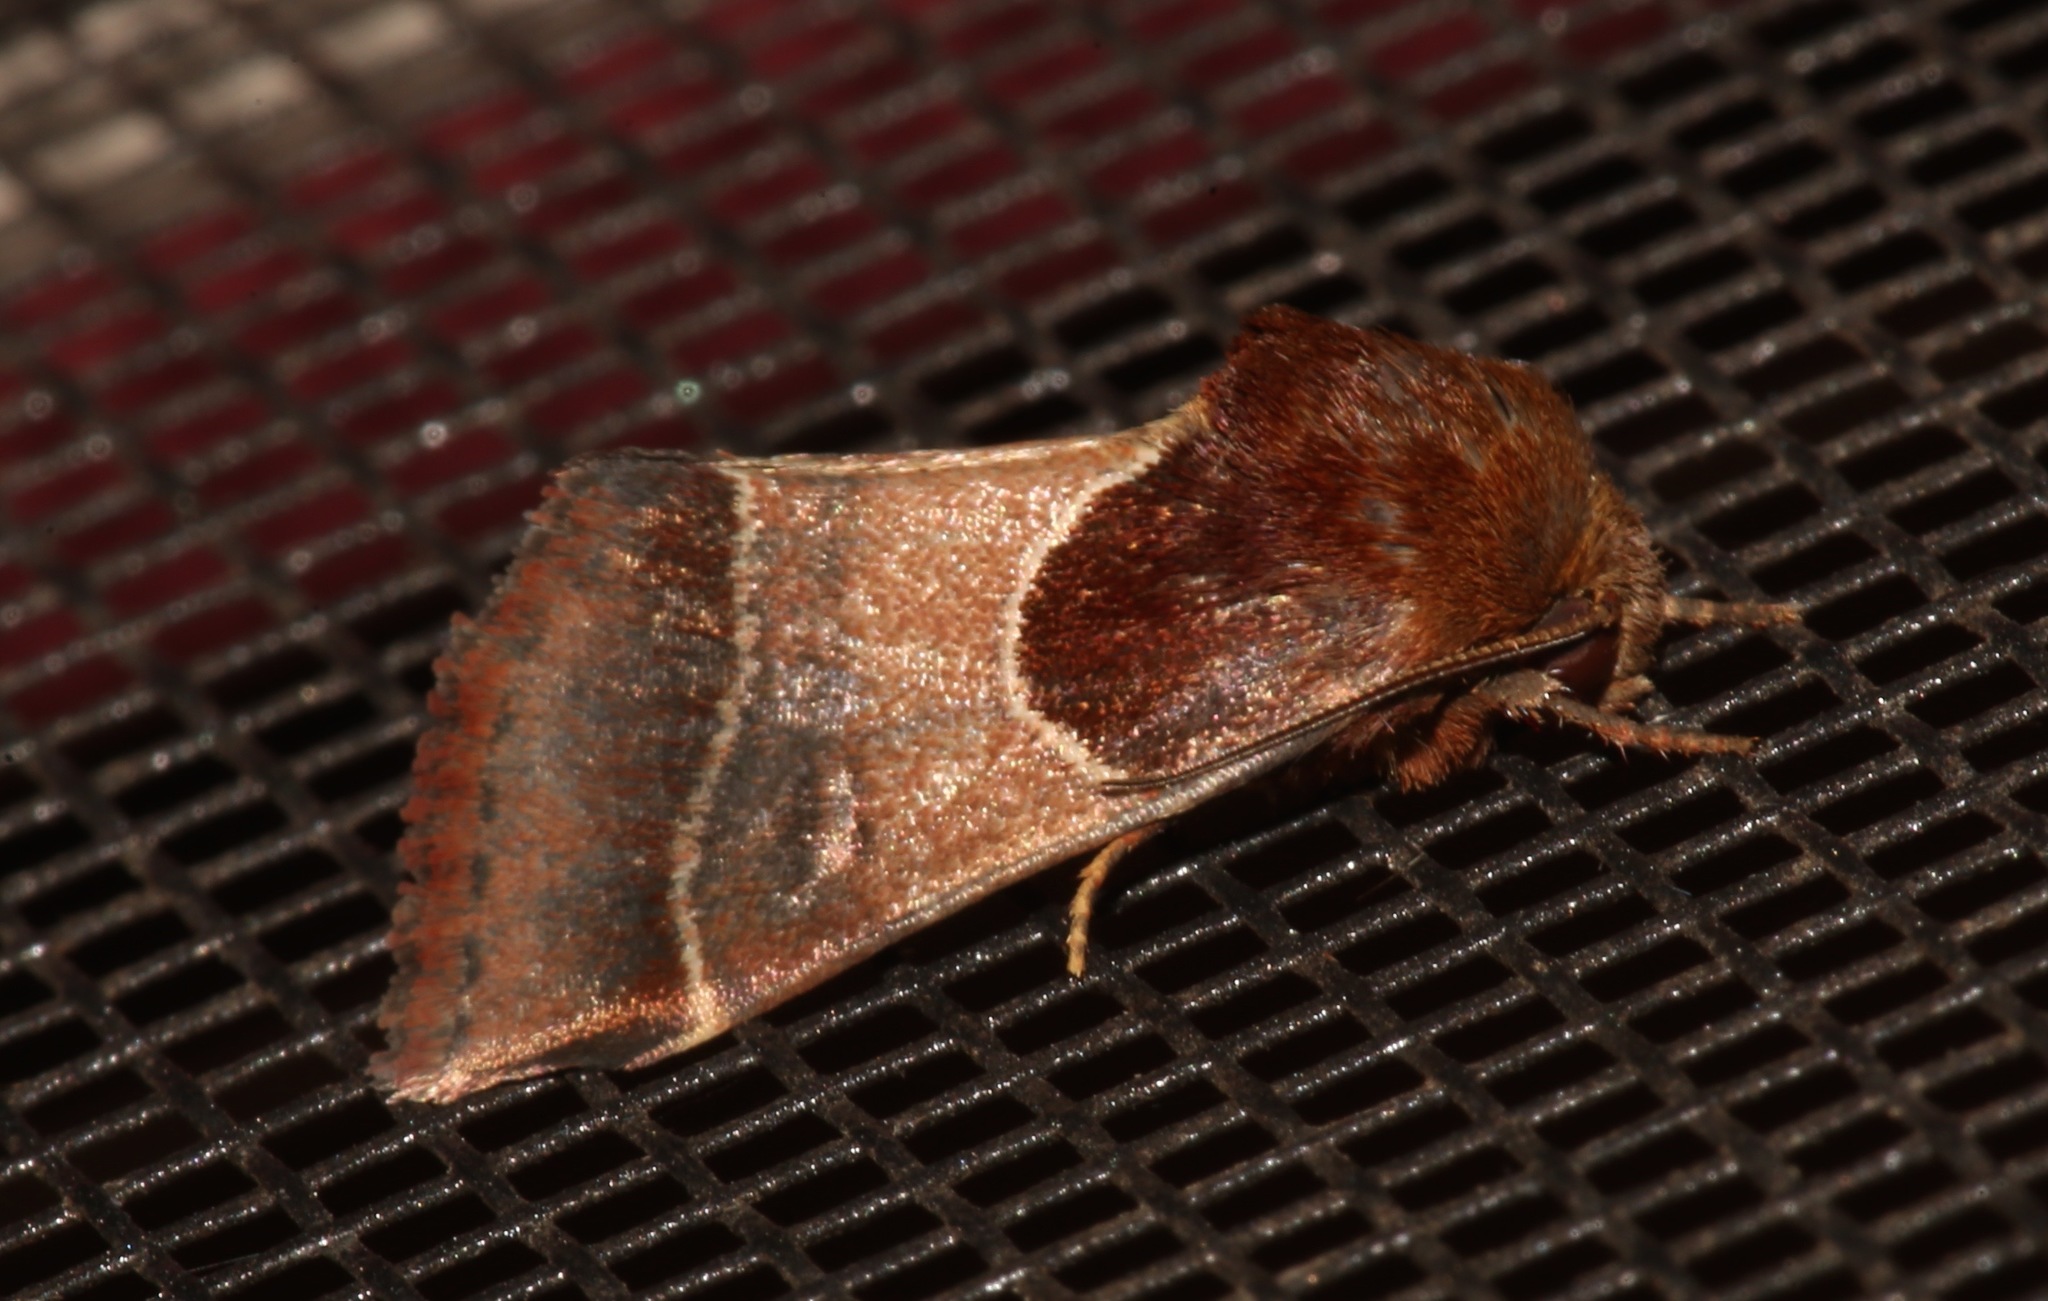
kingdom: Animalia
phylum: Arthropoda
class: Insecta
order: Lepidoptera
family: Noctuidae
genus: Schinia
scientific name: Schinia arcigera
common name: Arcigera flower moth
